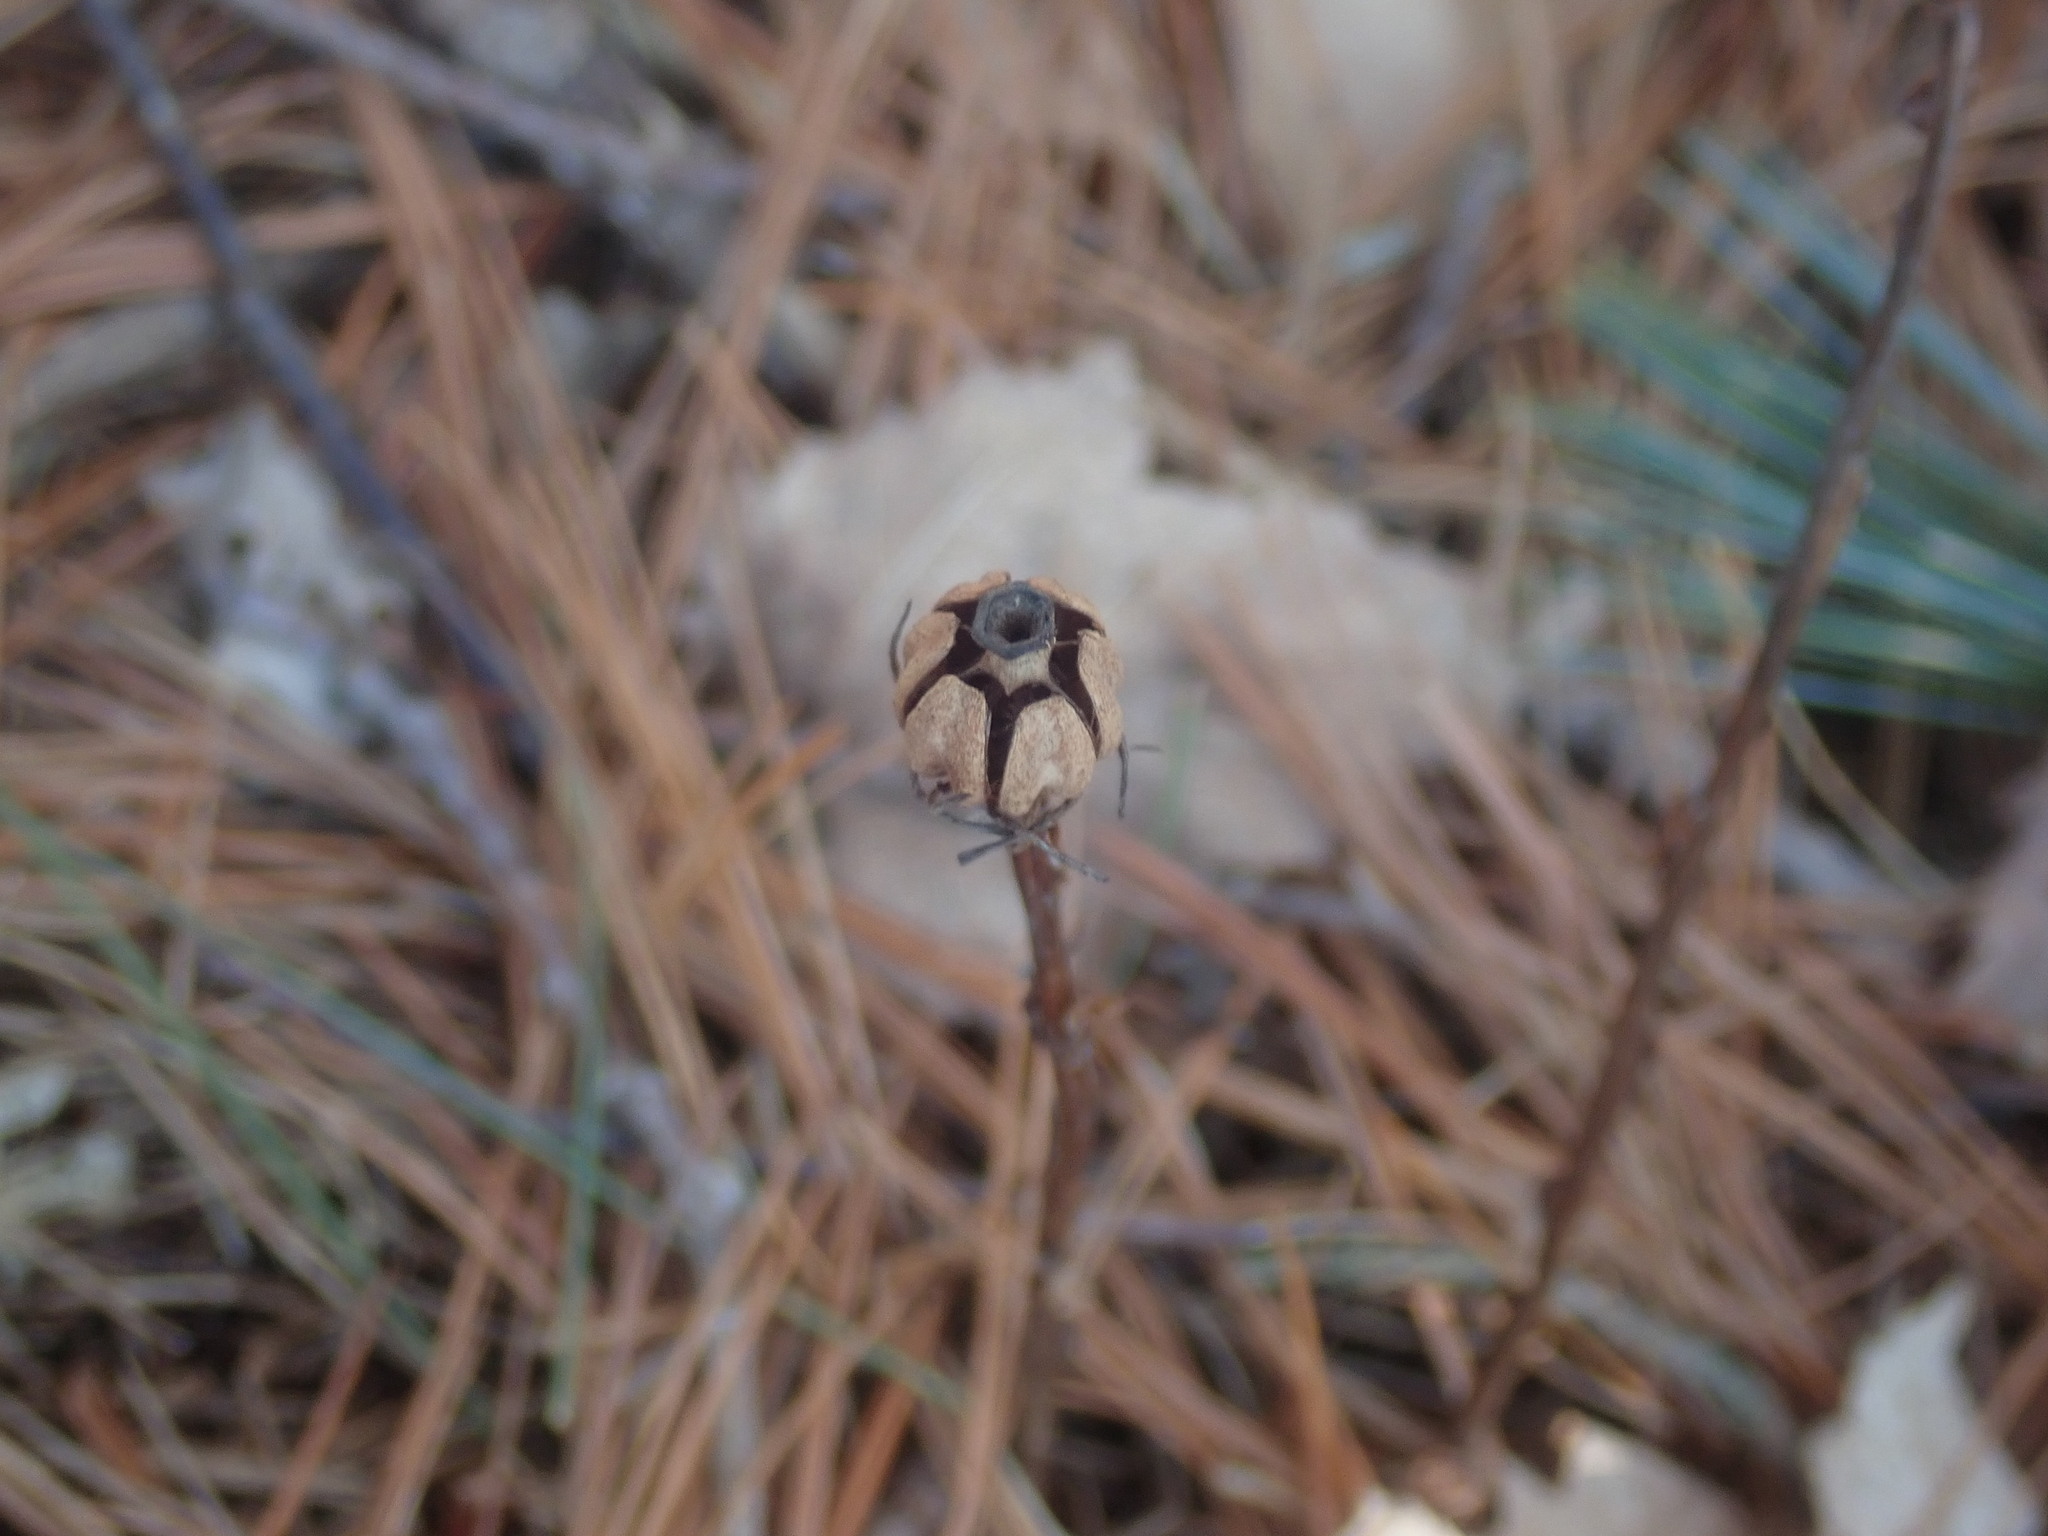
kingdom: Plantae
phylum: Tracheophyta
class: Magnoliopsida
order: Ericales
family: Ericaceae
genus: Monotropa
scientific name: Monotropa uniflora
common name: Convulsion root
